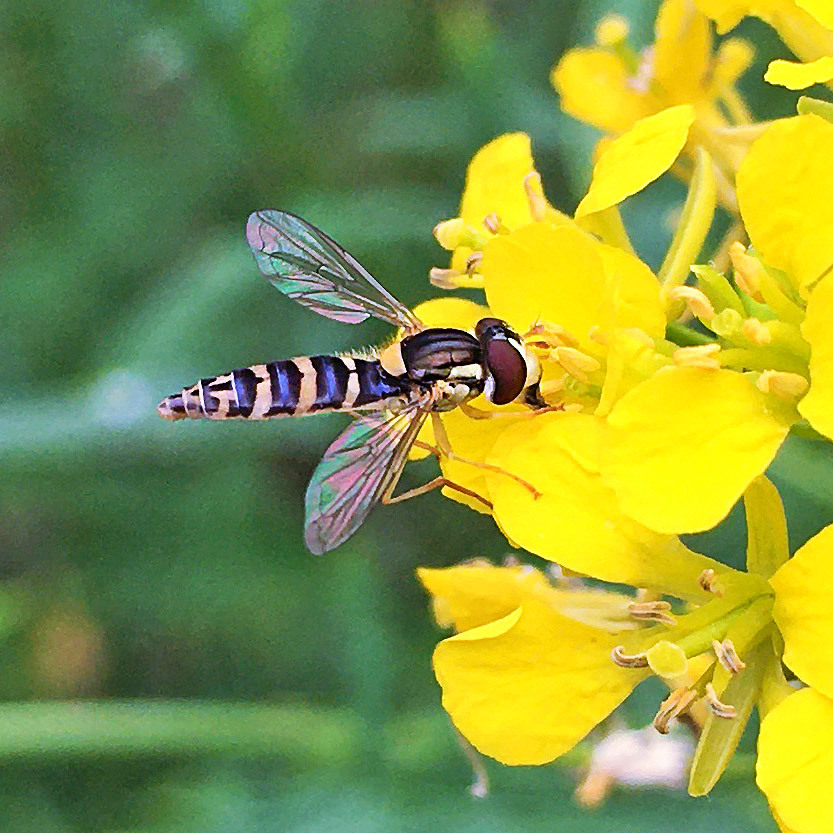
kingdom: Animalia
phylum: Arthropoda
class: Insecta
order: Diptera
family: Syrphidae
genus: Sphaerophoria
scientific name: Sphaerophoria
